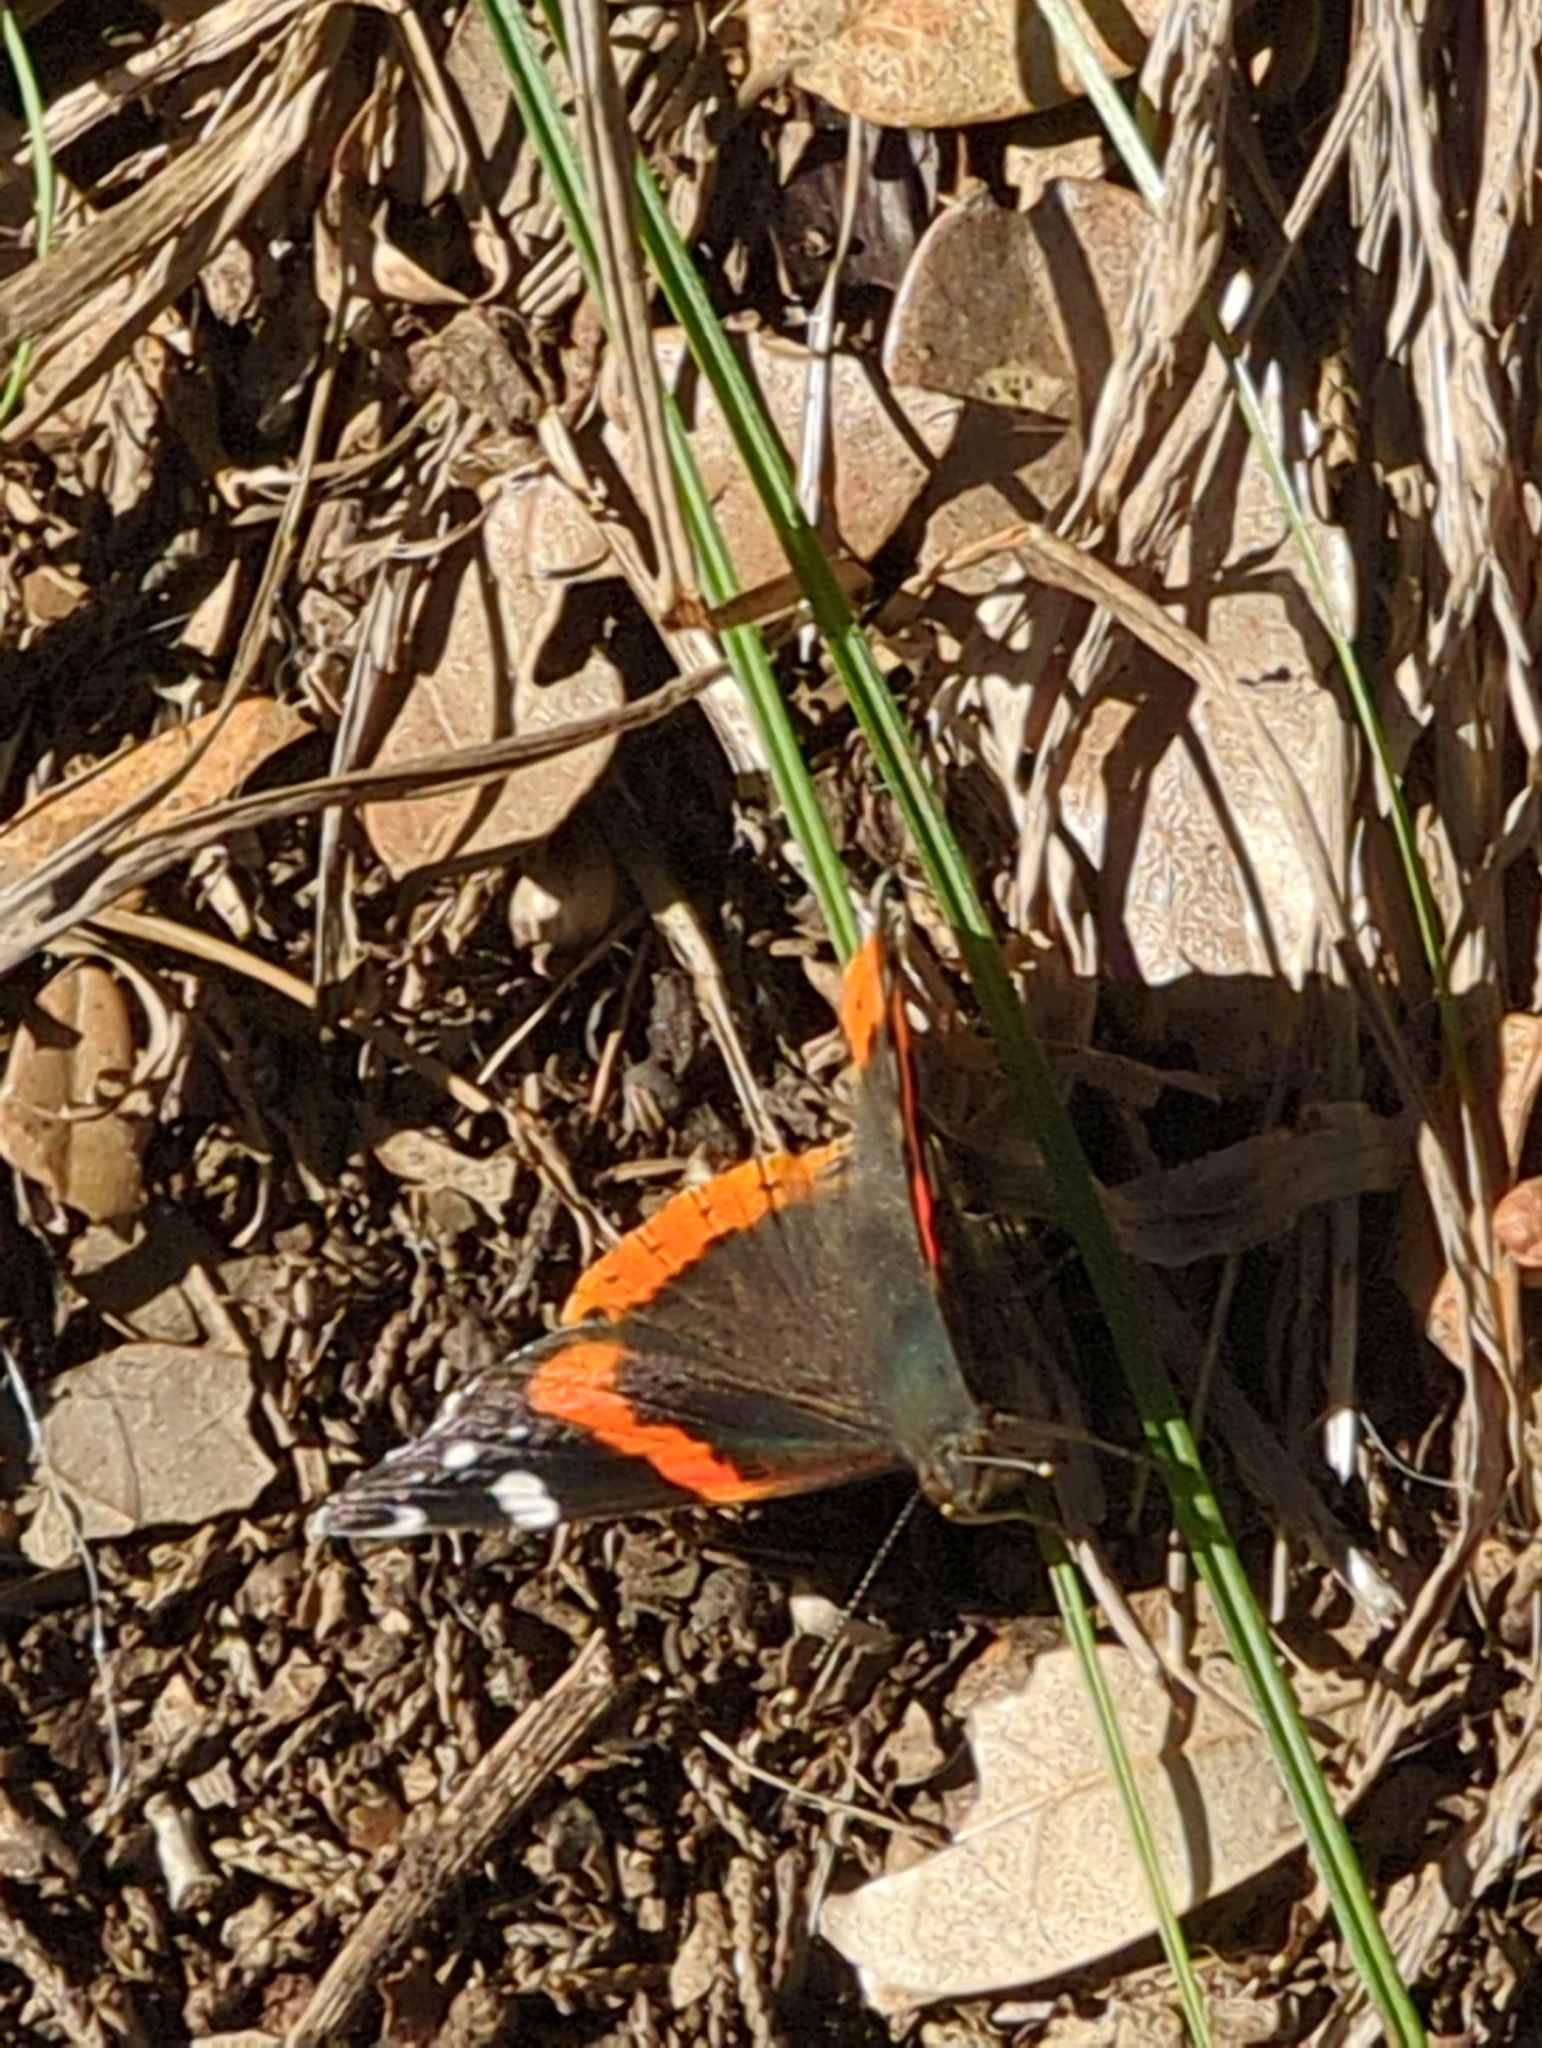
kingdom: Animalia
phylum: Arthropoda
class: Insecta
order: Lepidoptera
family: Nymphalidae
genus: Vanessa
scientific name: Vanessa atalanta
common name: Red admiral
